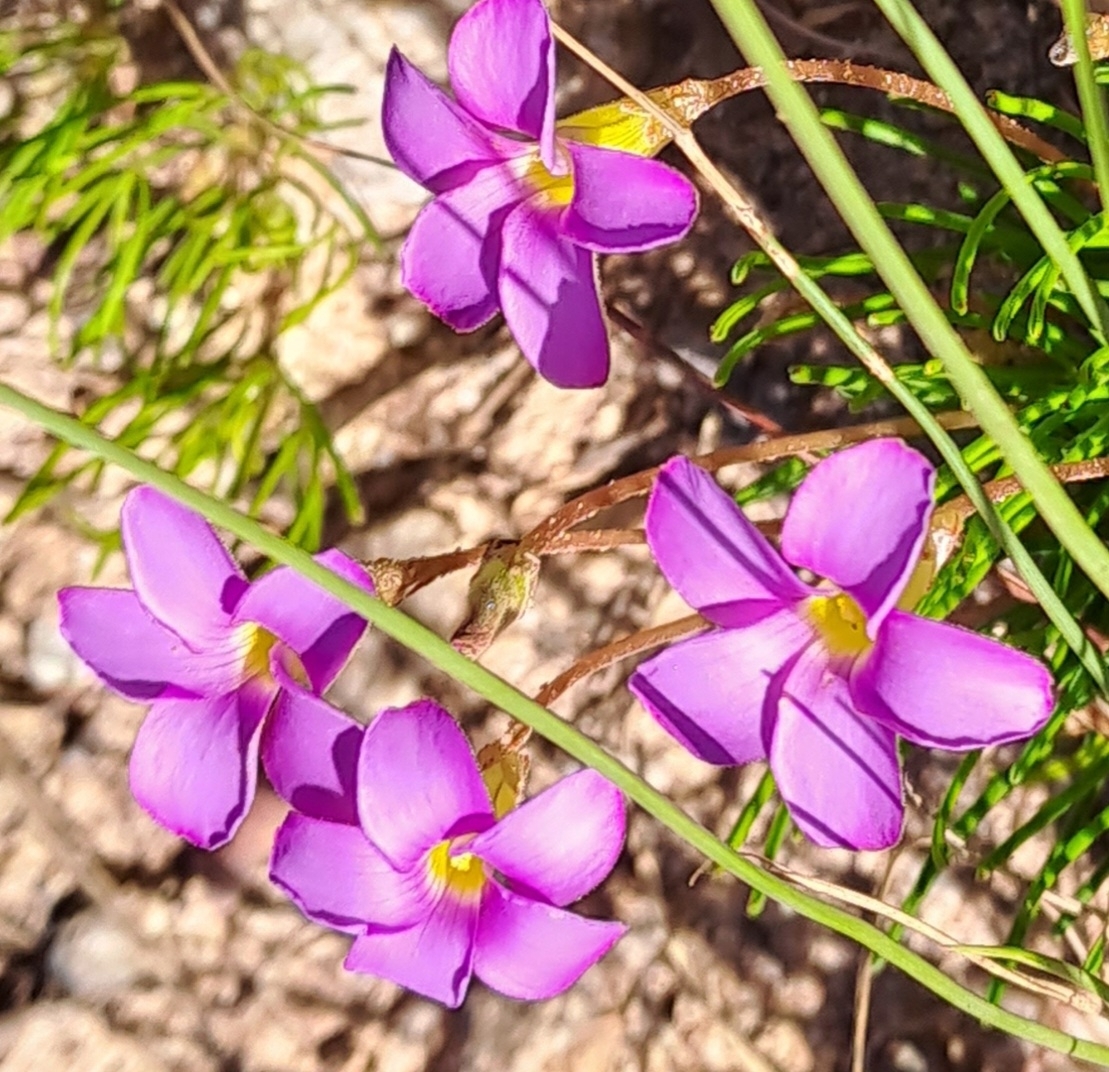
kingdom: Plantae
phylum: Tracheophyta
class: Magnoliopsida
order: Oxalidales
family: Oxalidaceae
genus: Oxalis
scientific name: Oxalis polyphylla
